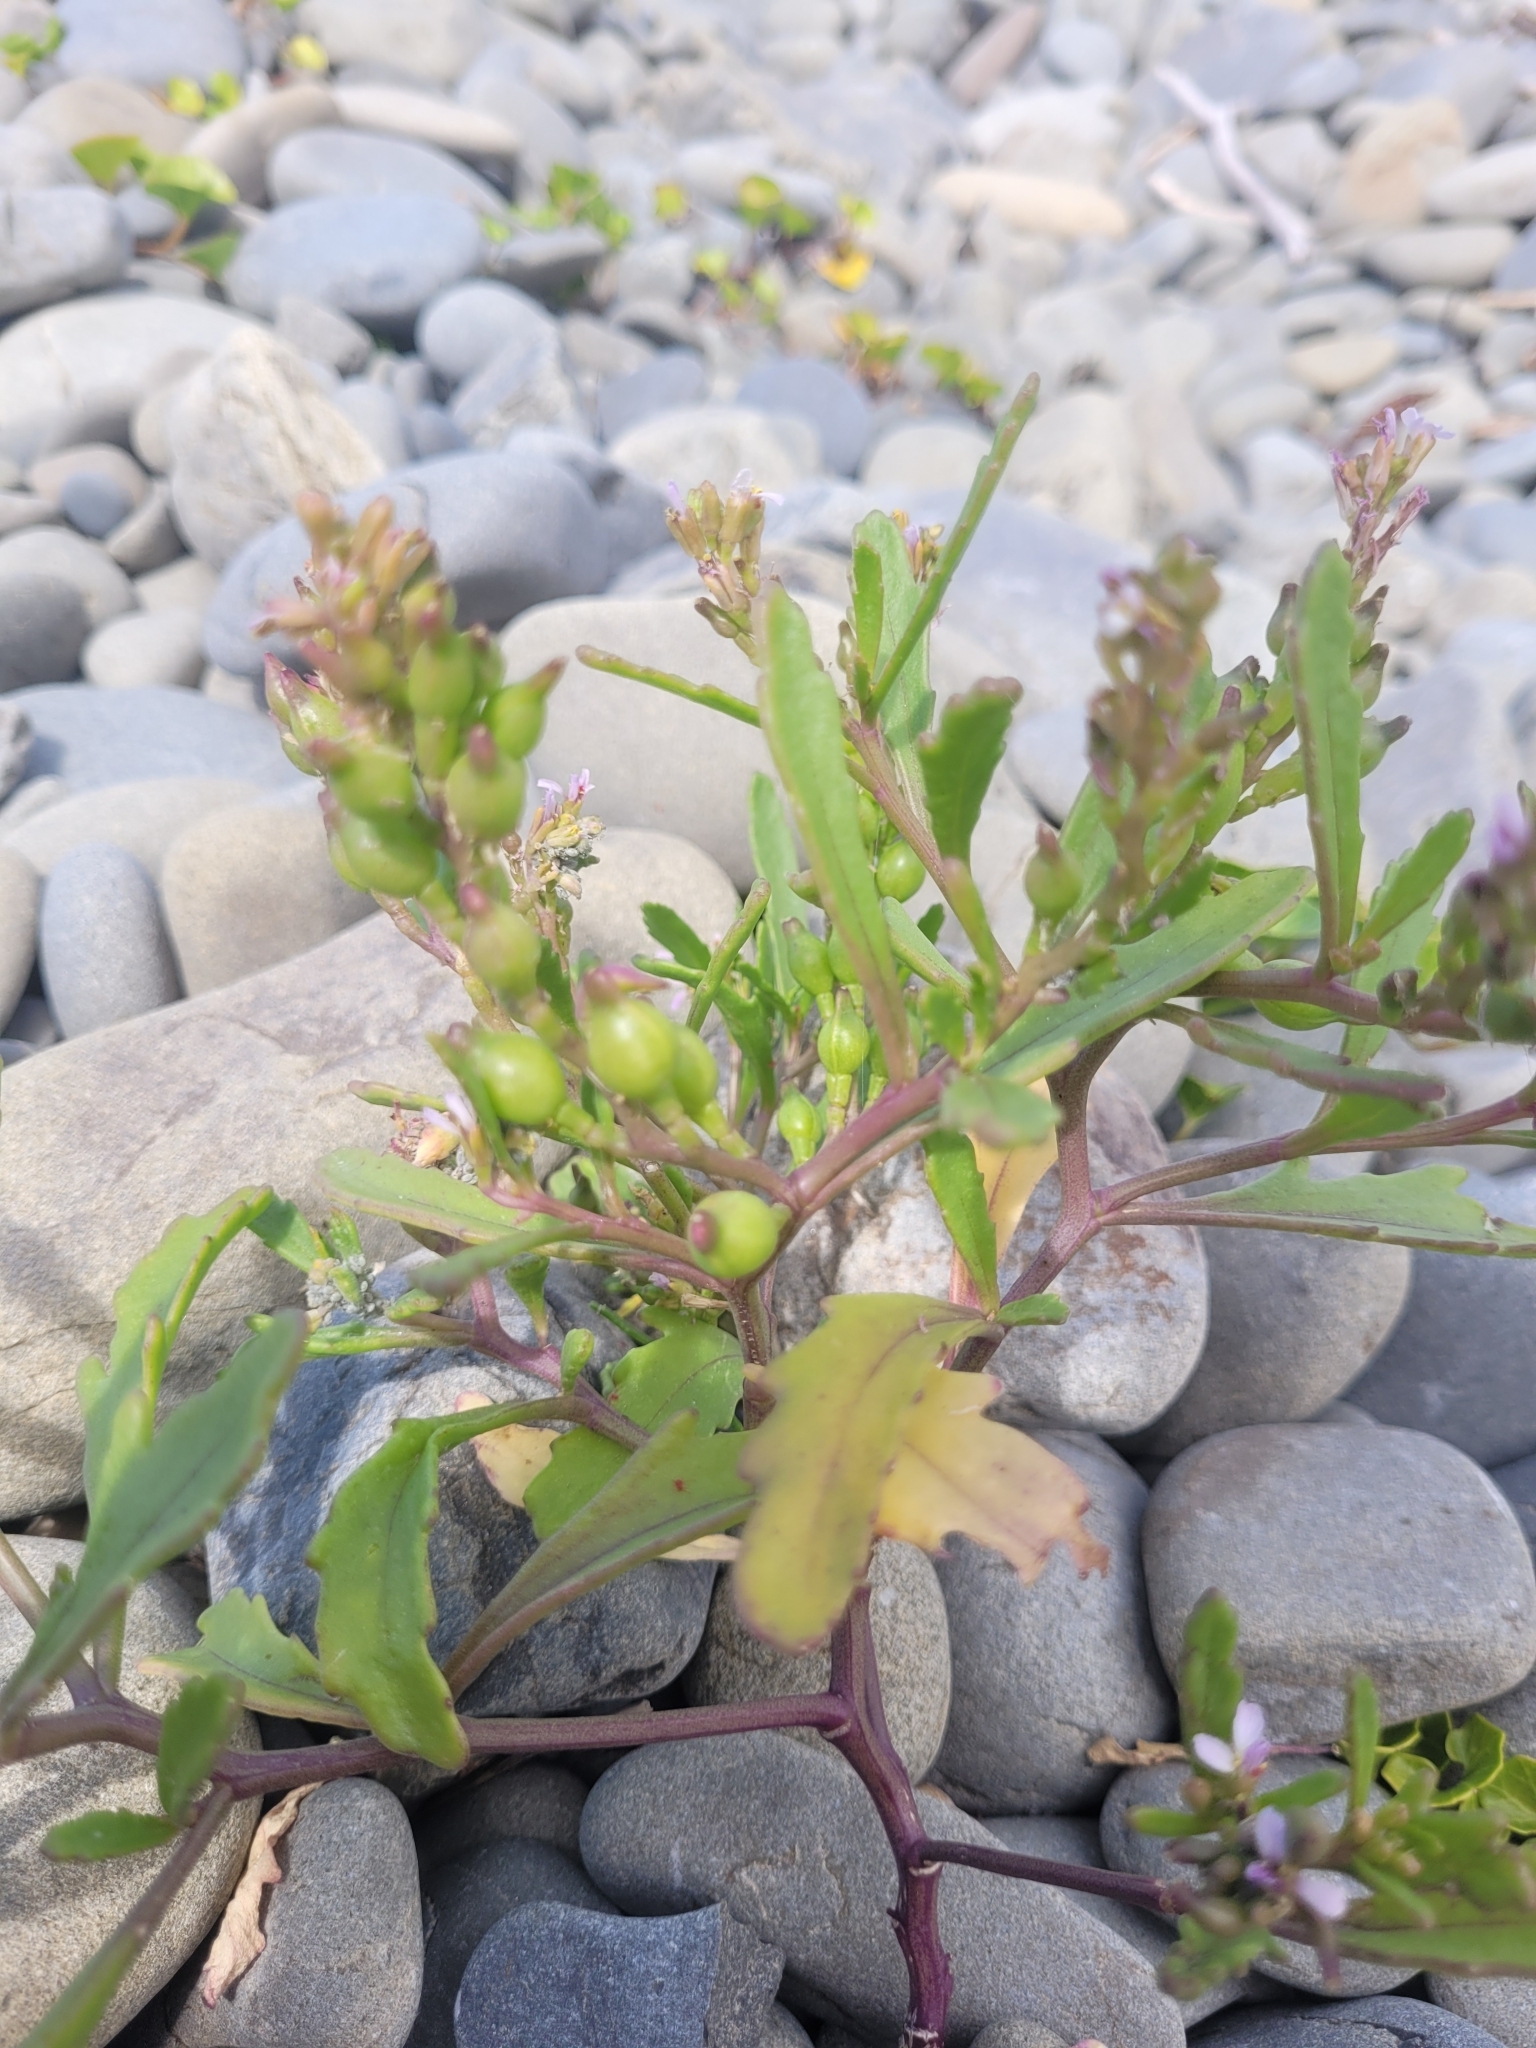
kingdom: Plantae
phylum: Tracheophyta
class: Magnoliopsida
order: Brassicales
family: Brassicaceae
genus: Cakile
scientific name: Cakile edentula
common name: American sea rocket
